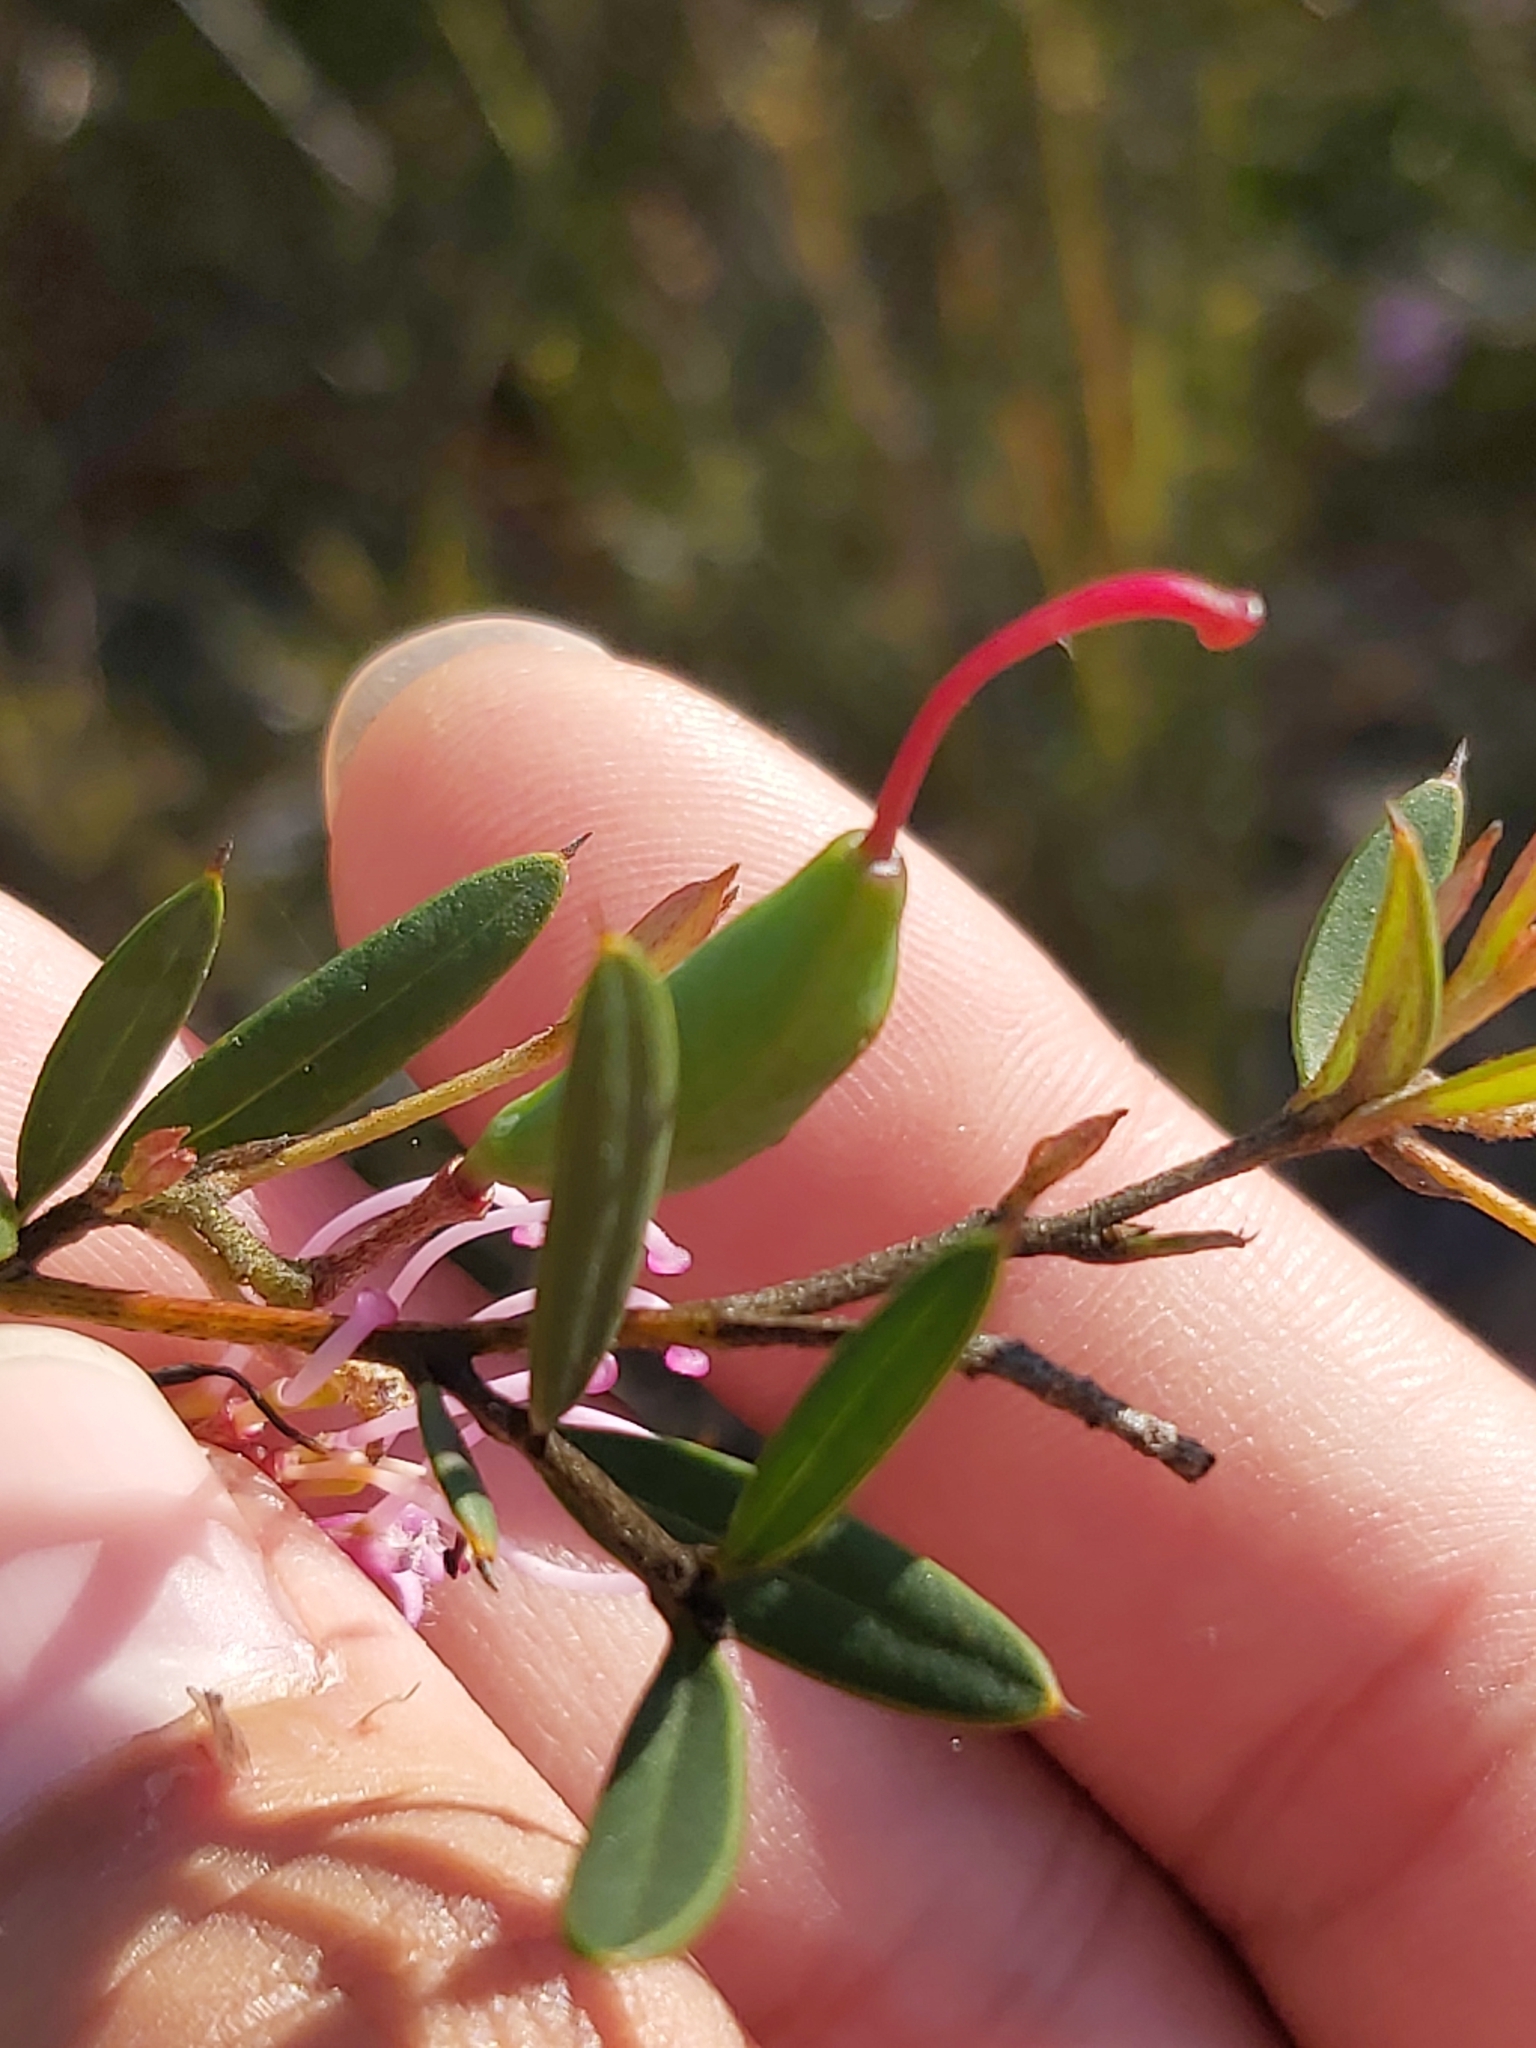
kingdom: Plantae
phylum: Tracheophyta
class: Magnoliopsida
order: Proteales
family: Proteaceae
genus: Grevillea
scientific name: Grevillea sericea
